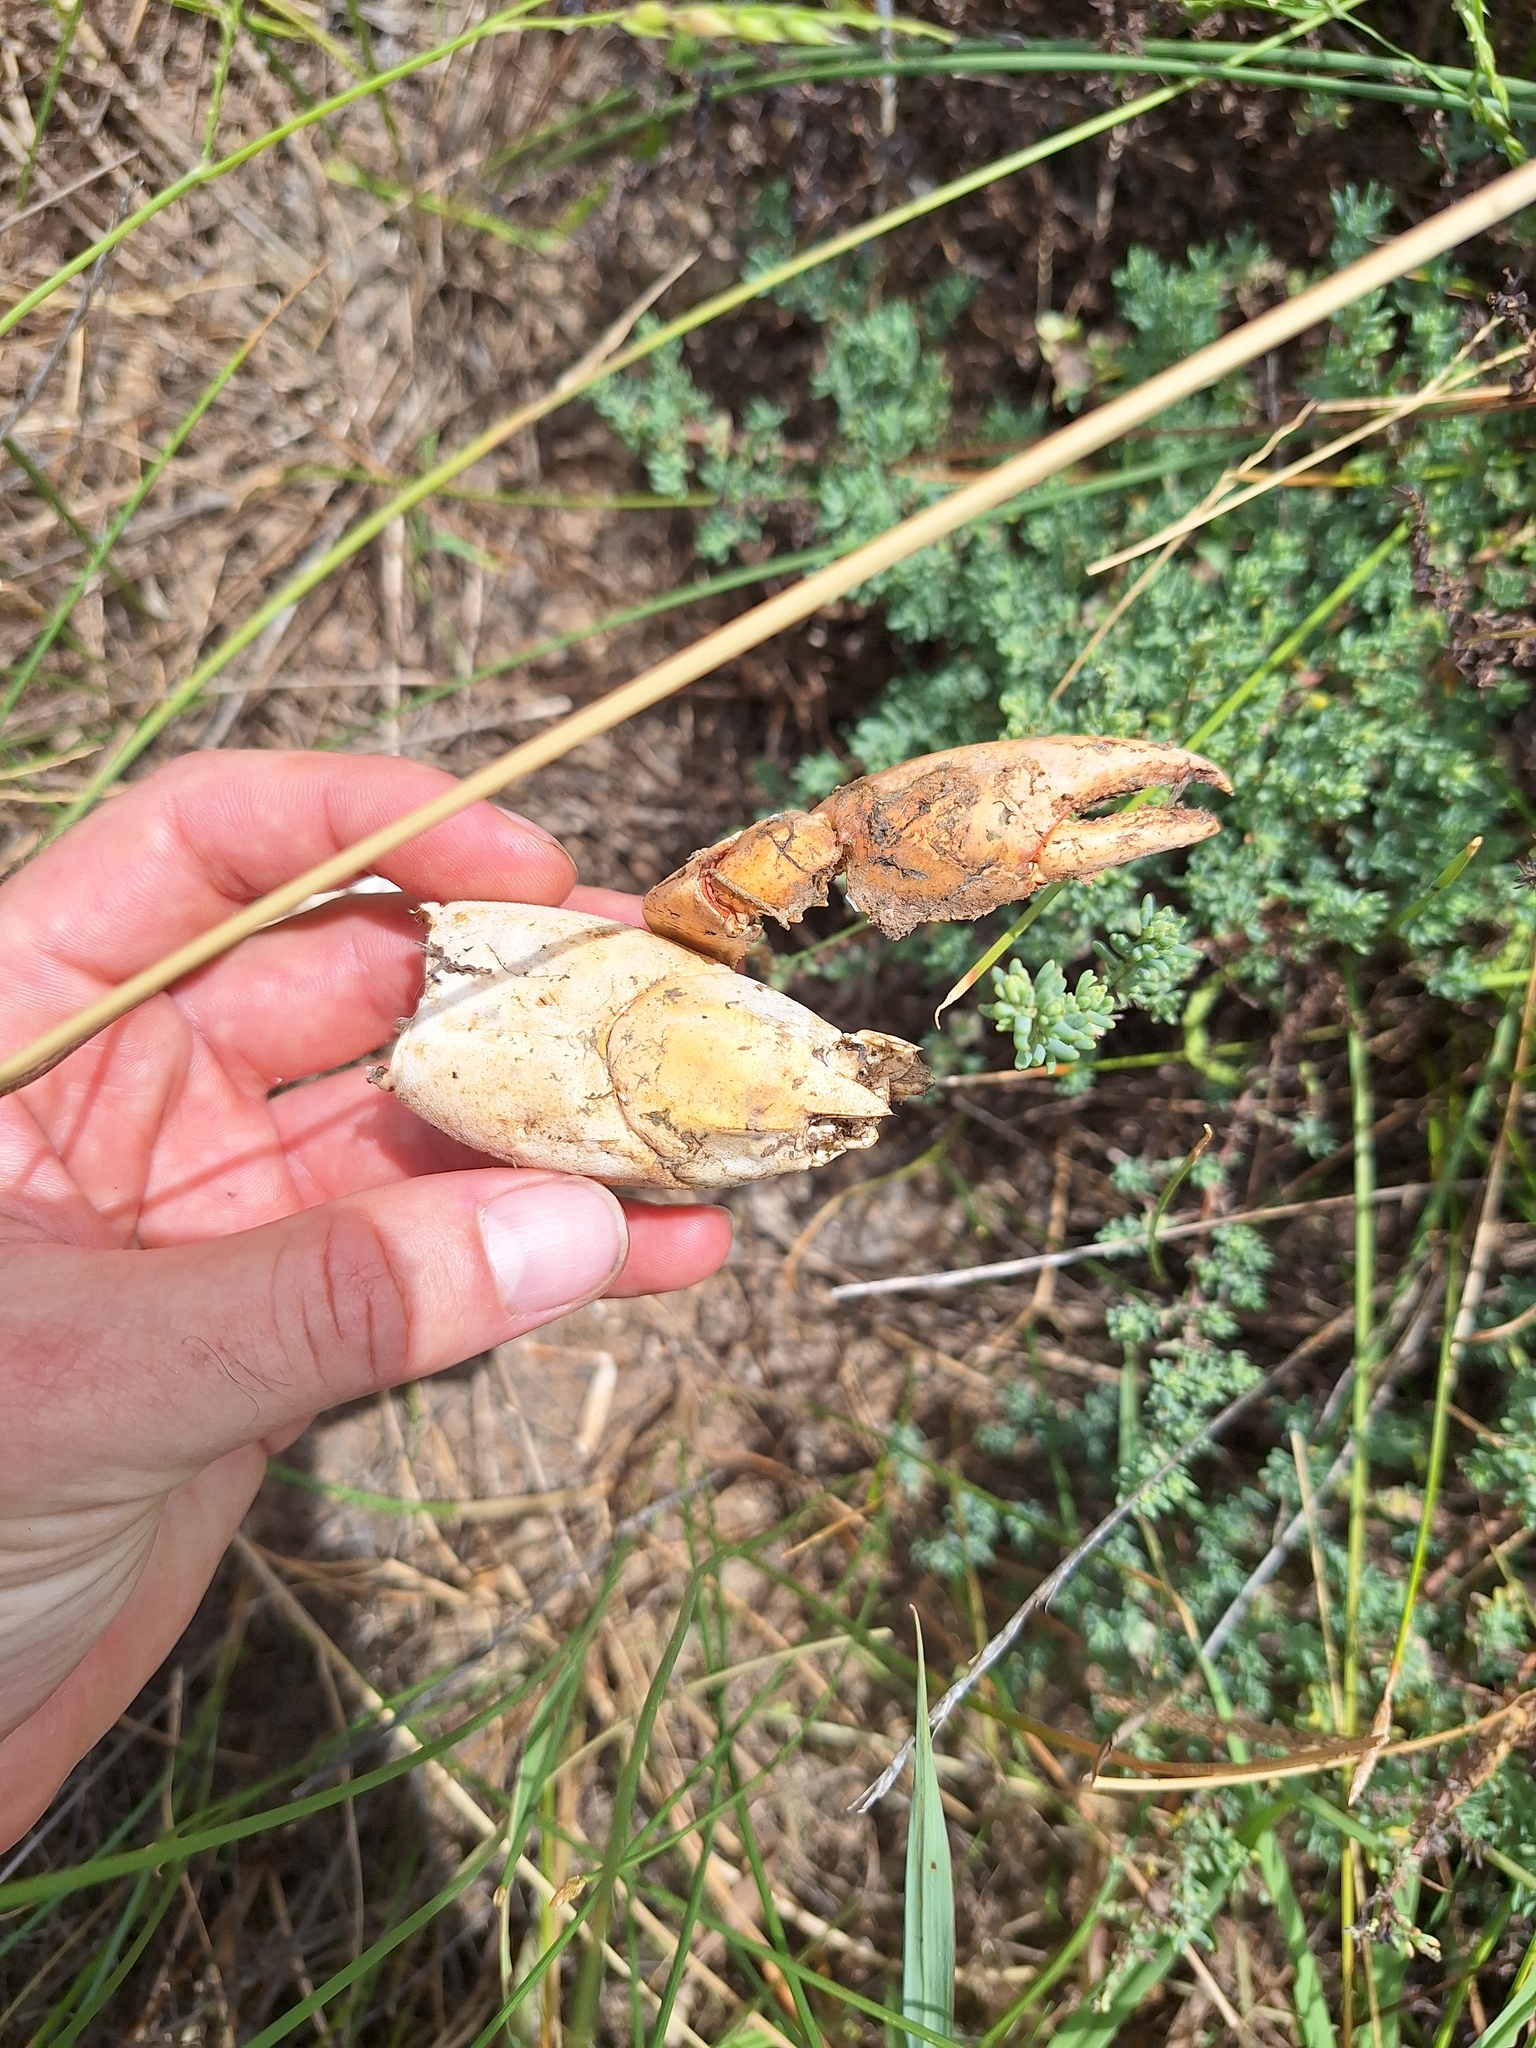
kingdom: Animalia
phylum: Arthropoda
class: Malacostraca
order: Decapoda
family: Parastacidae
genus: Cherax
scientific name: Cherax destructor
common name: Yabby
